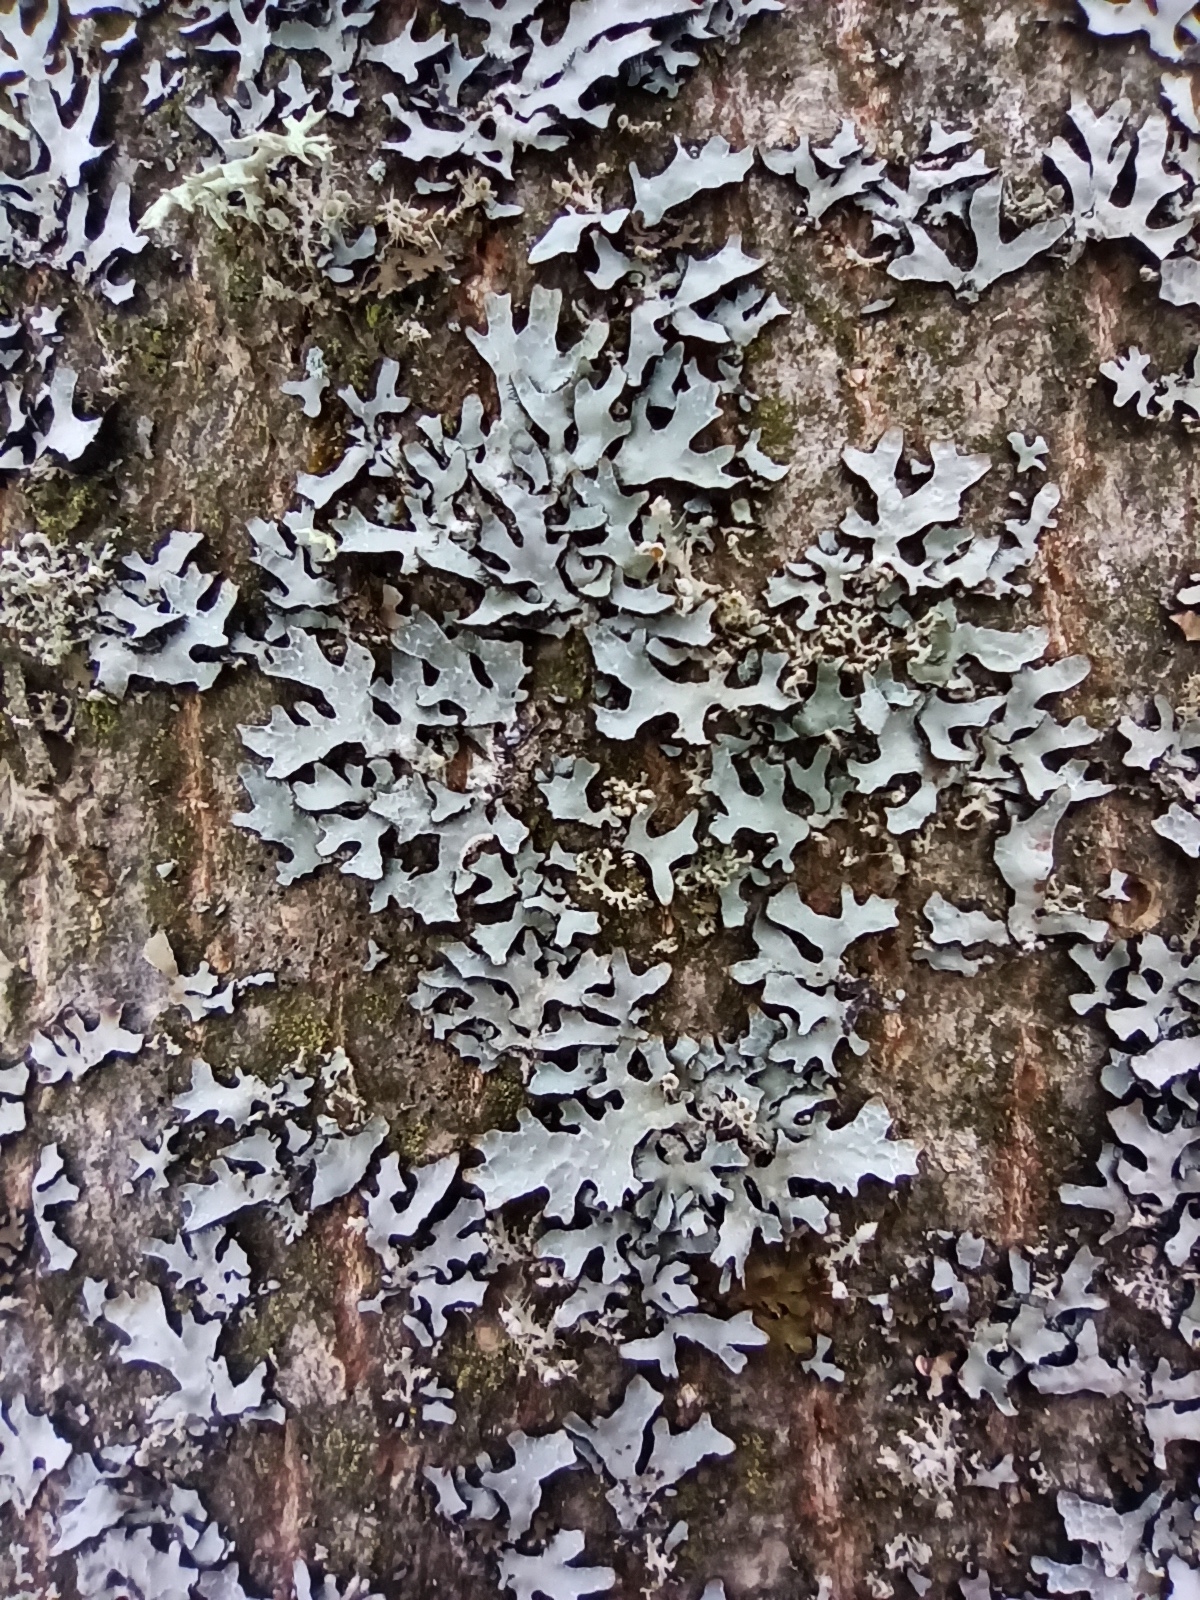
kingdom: Fungi
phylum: Ascomycota
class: Lecanoromycetes
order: Lecanorales
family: Parmeliaceae
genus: Parmelia
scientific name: Parmelia sulcata
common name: Netted shield lichen
